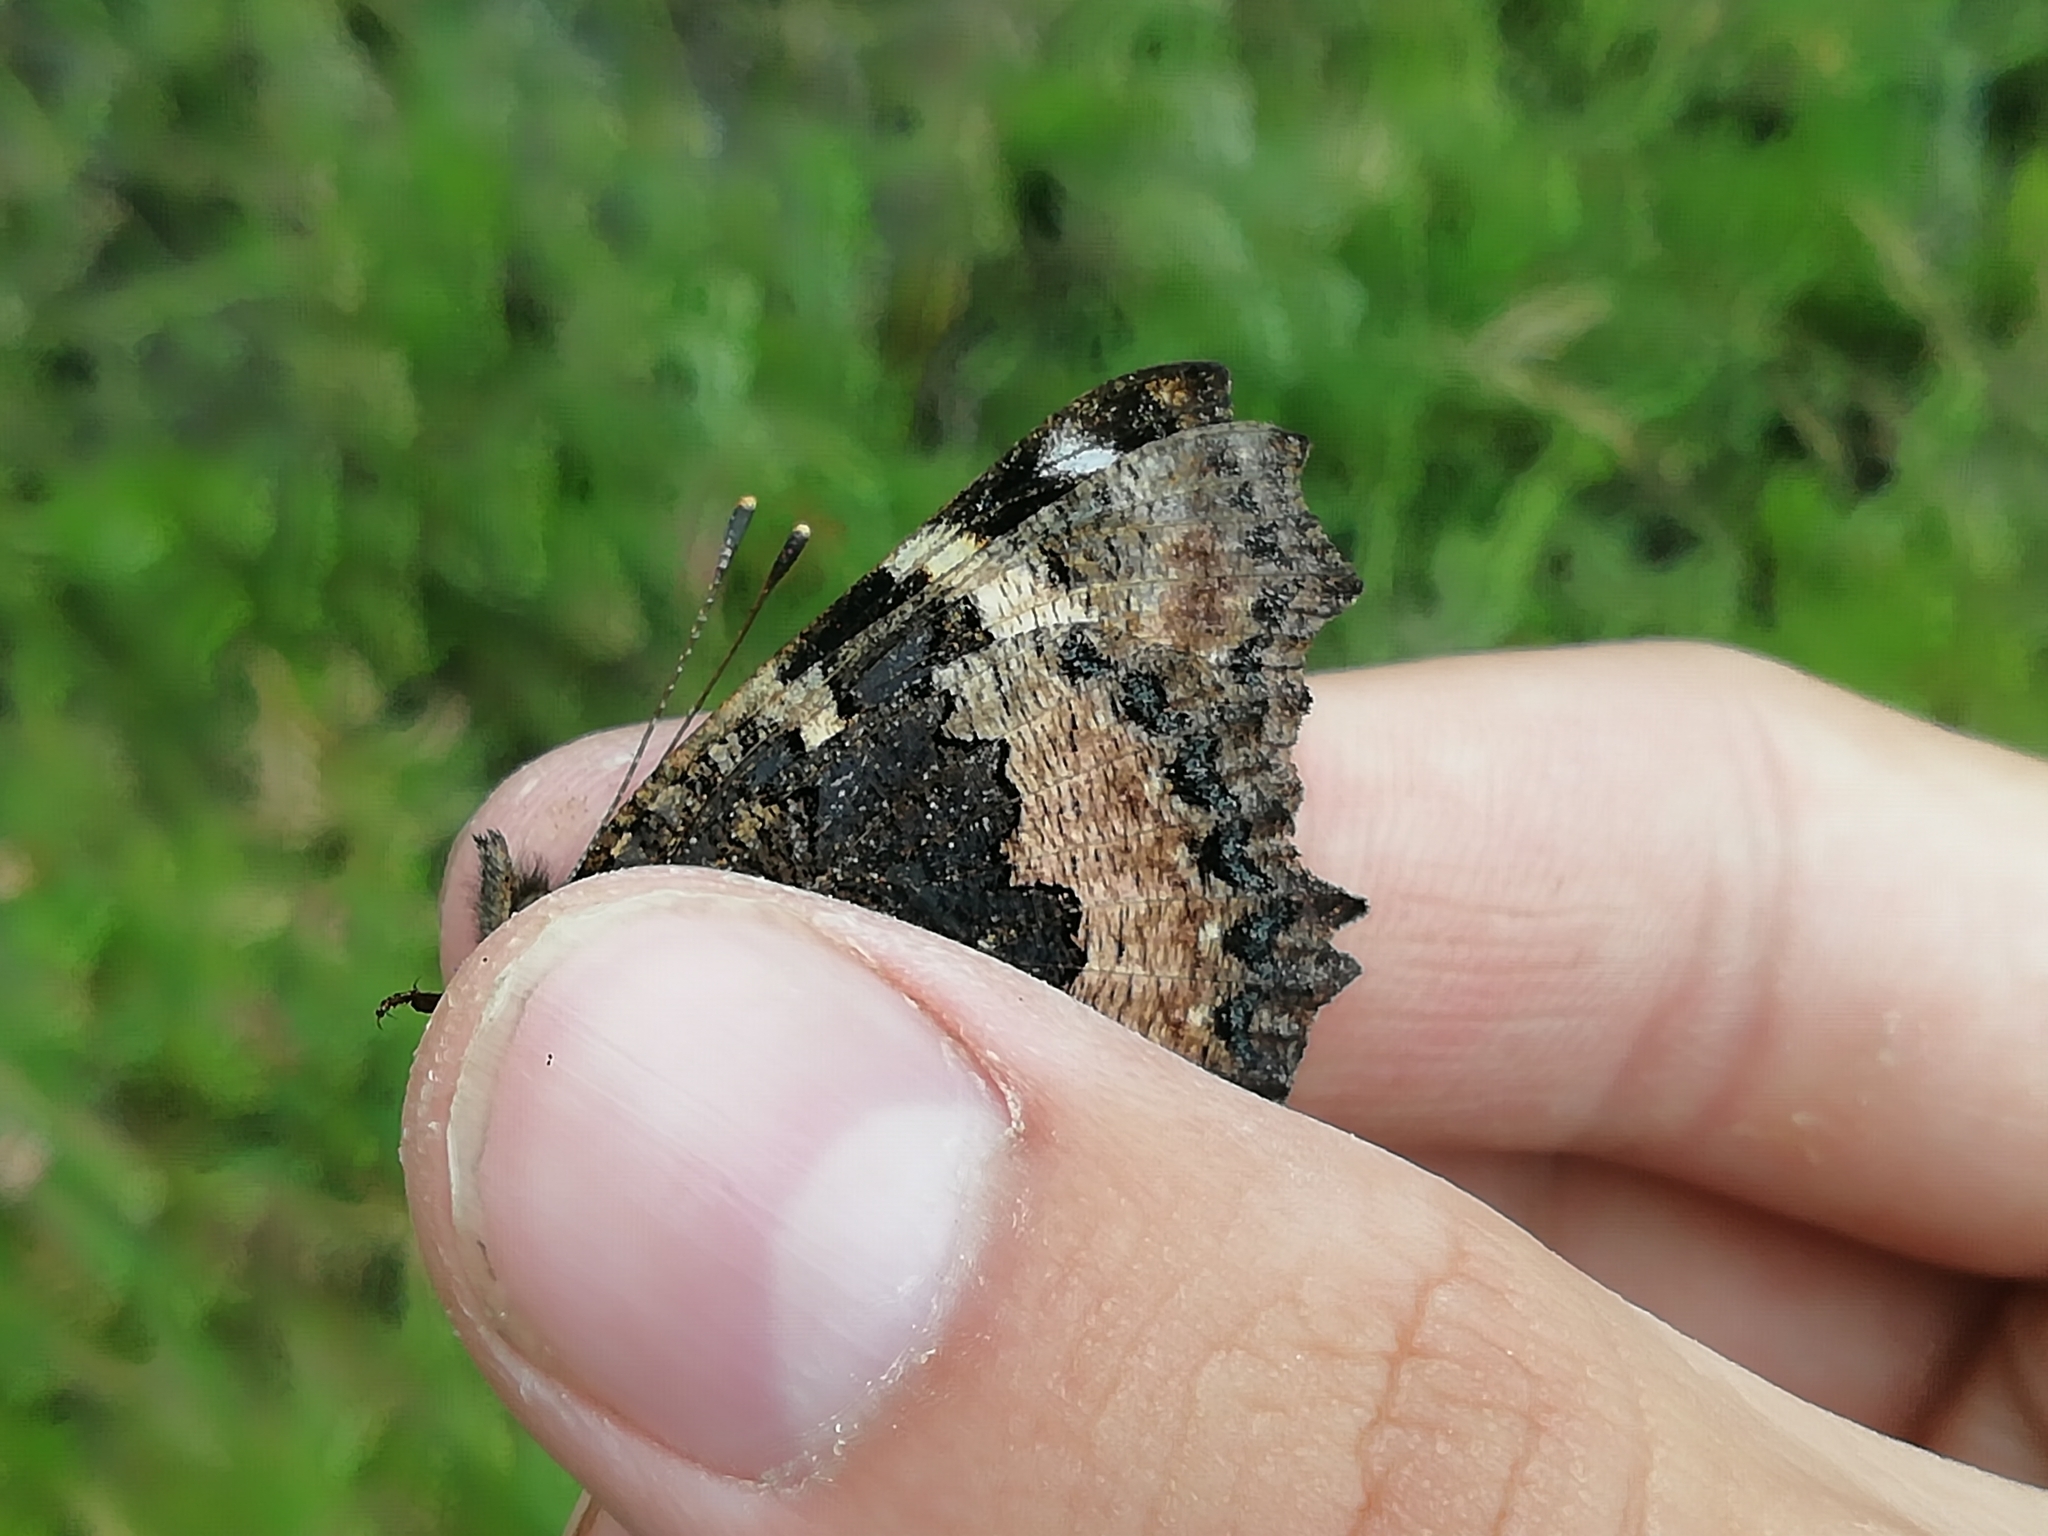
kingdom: Animalia
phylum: Arthropoda
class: Insecta
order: Lepidoptera
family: Nymphalidae
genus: Aglais
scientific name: Aglais urticae
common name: Small tortoiseshell
